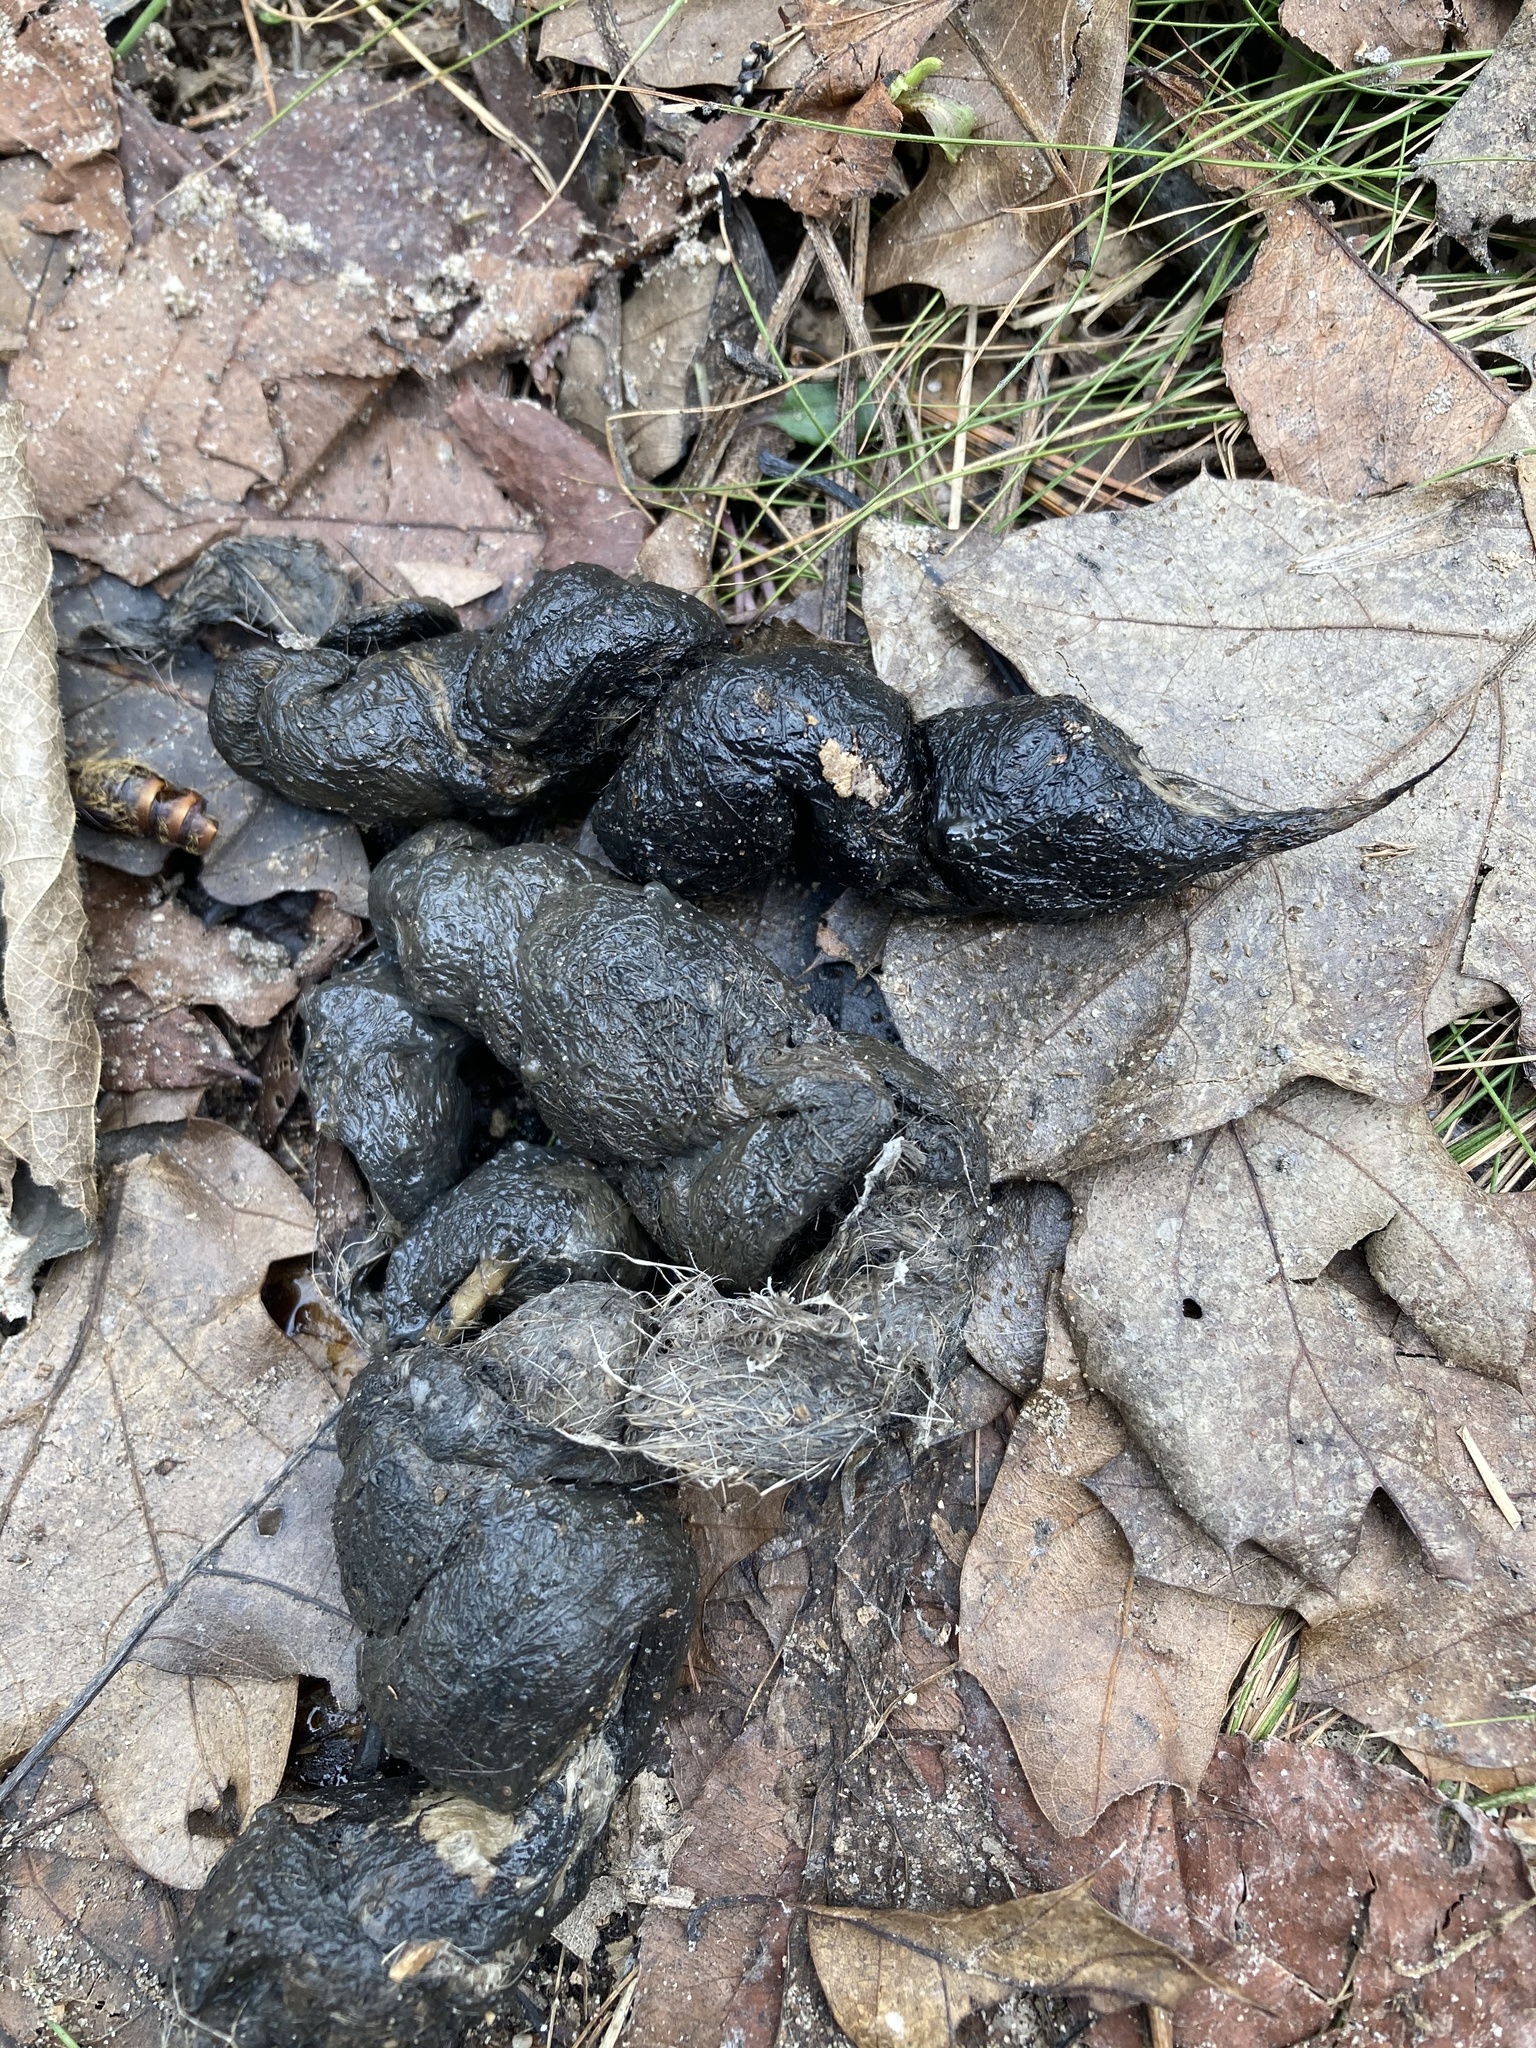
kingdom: Animalia
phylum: Chordata
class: Mammalia
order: Carnivora
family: Canidae
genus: Canis
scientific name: Canis latrans
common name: Coyote
